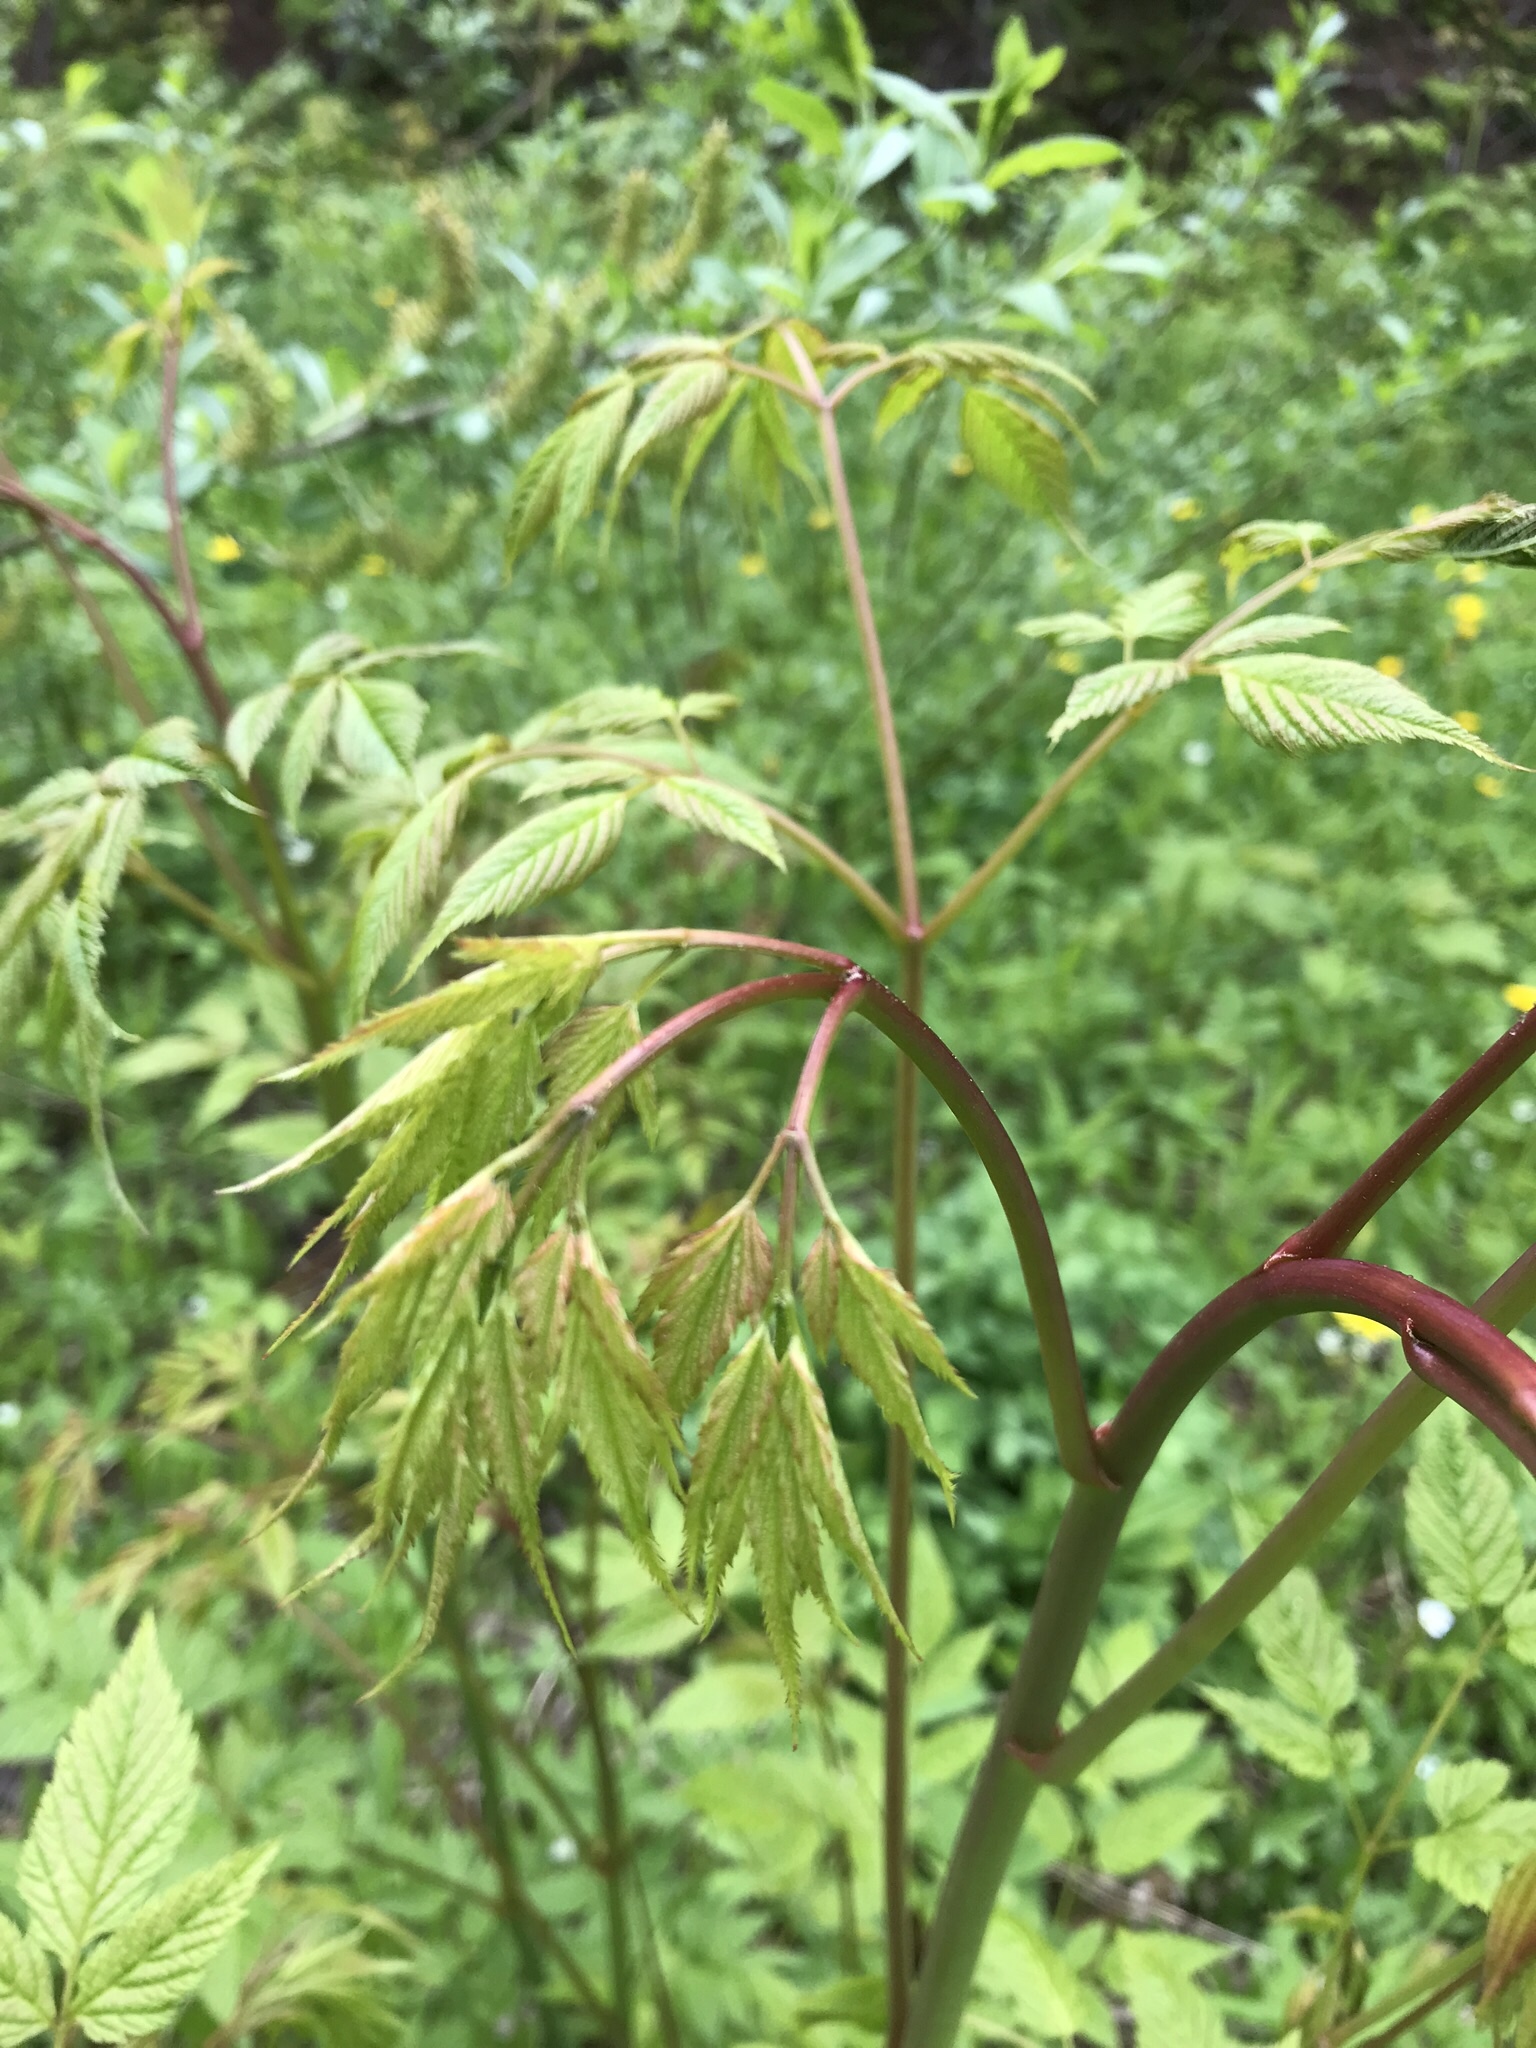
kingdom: Plantae
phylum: Tracheophyta
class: Magnoliopsida
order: Rosales
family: Rosaceae
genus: Aruncus
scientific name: Aruncus dioicus
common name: Buck's-beard
